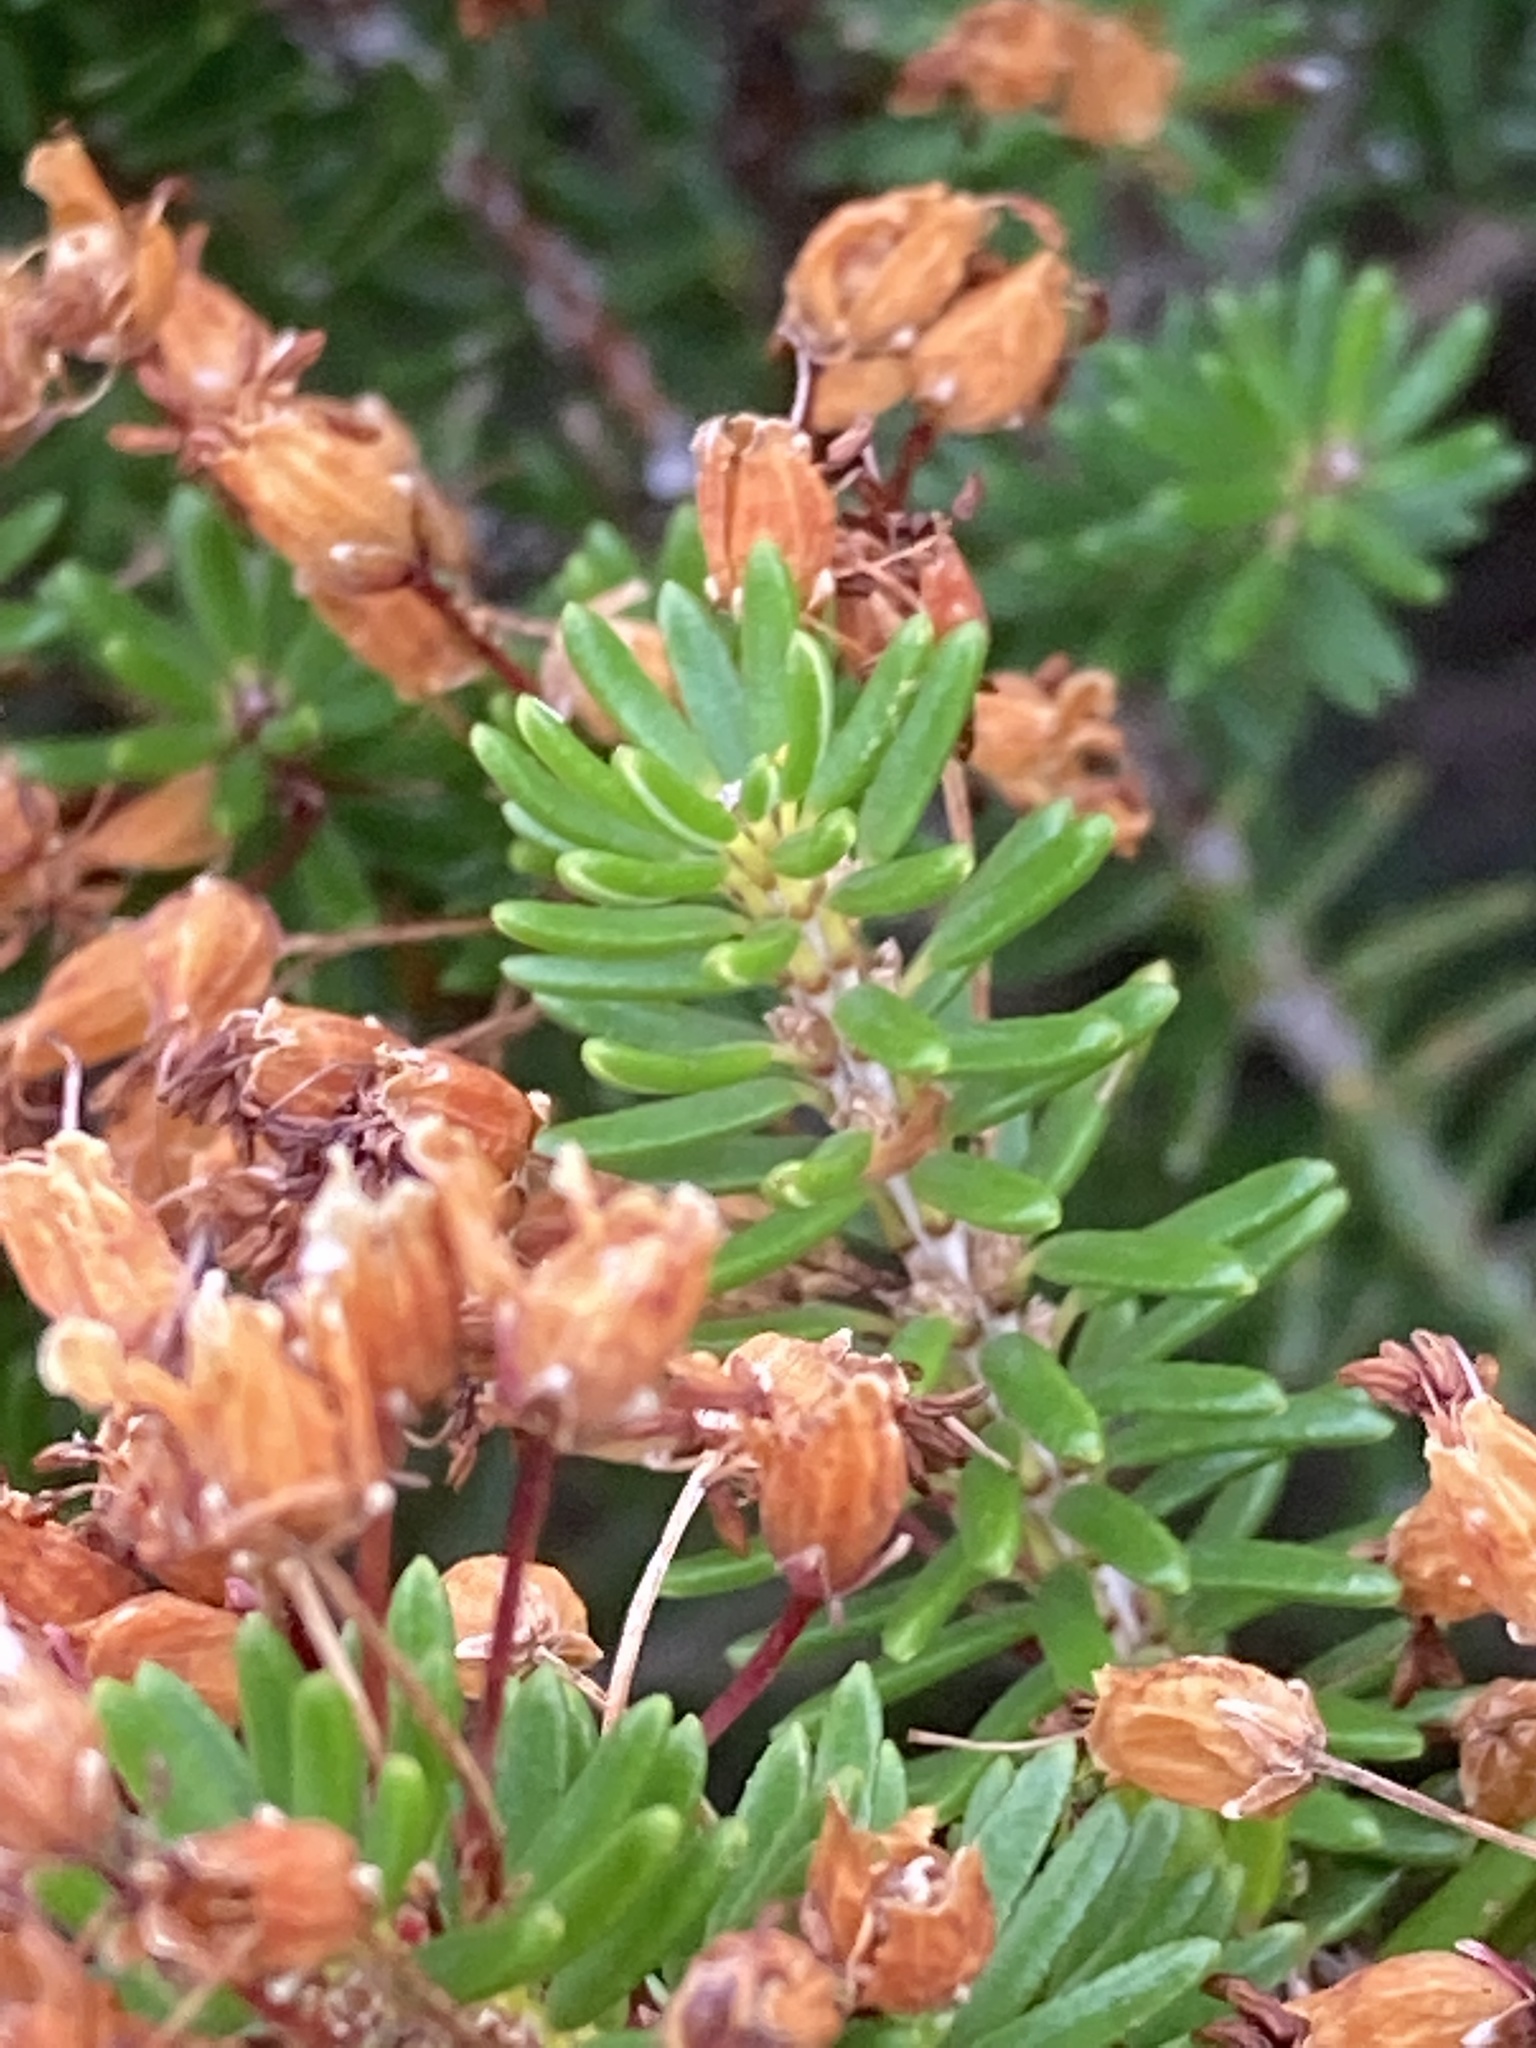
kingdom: Plantae
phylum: Tracheophyta
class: Magnoliopsida
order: Ericales
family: Ericaceae
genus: Erica
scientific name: Erica multiflora
